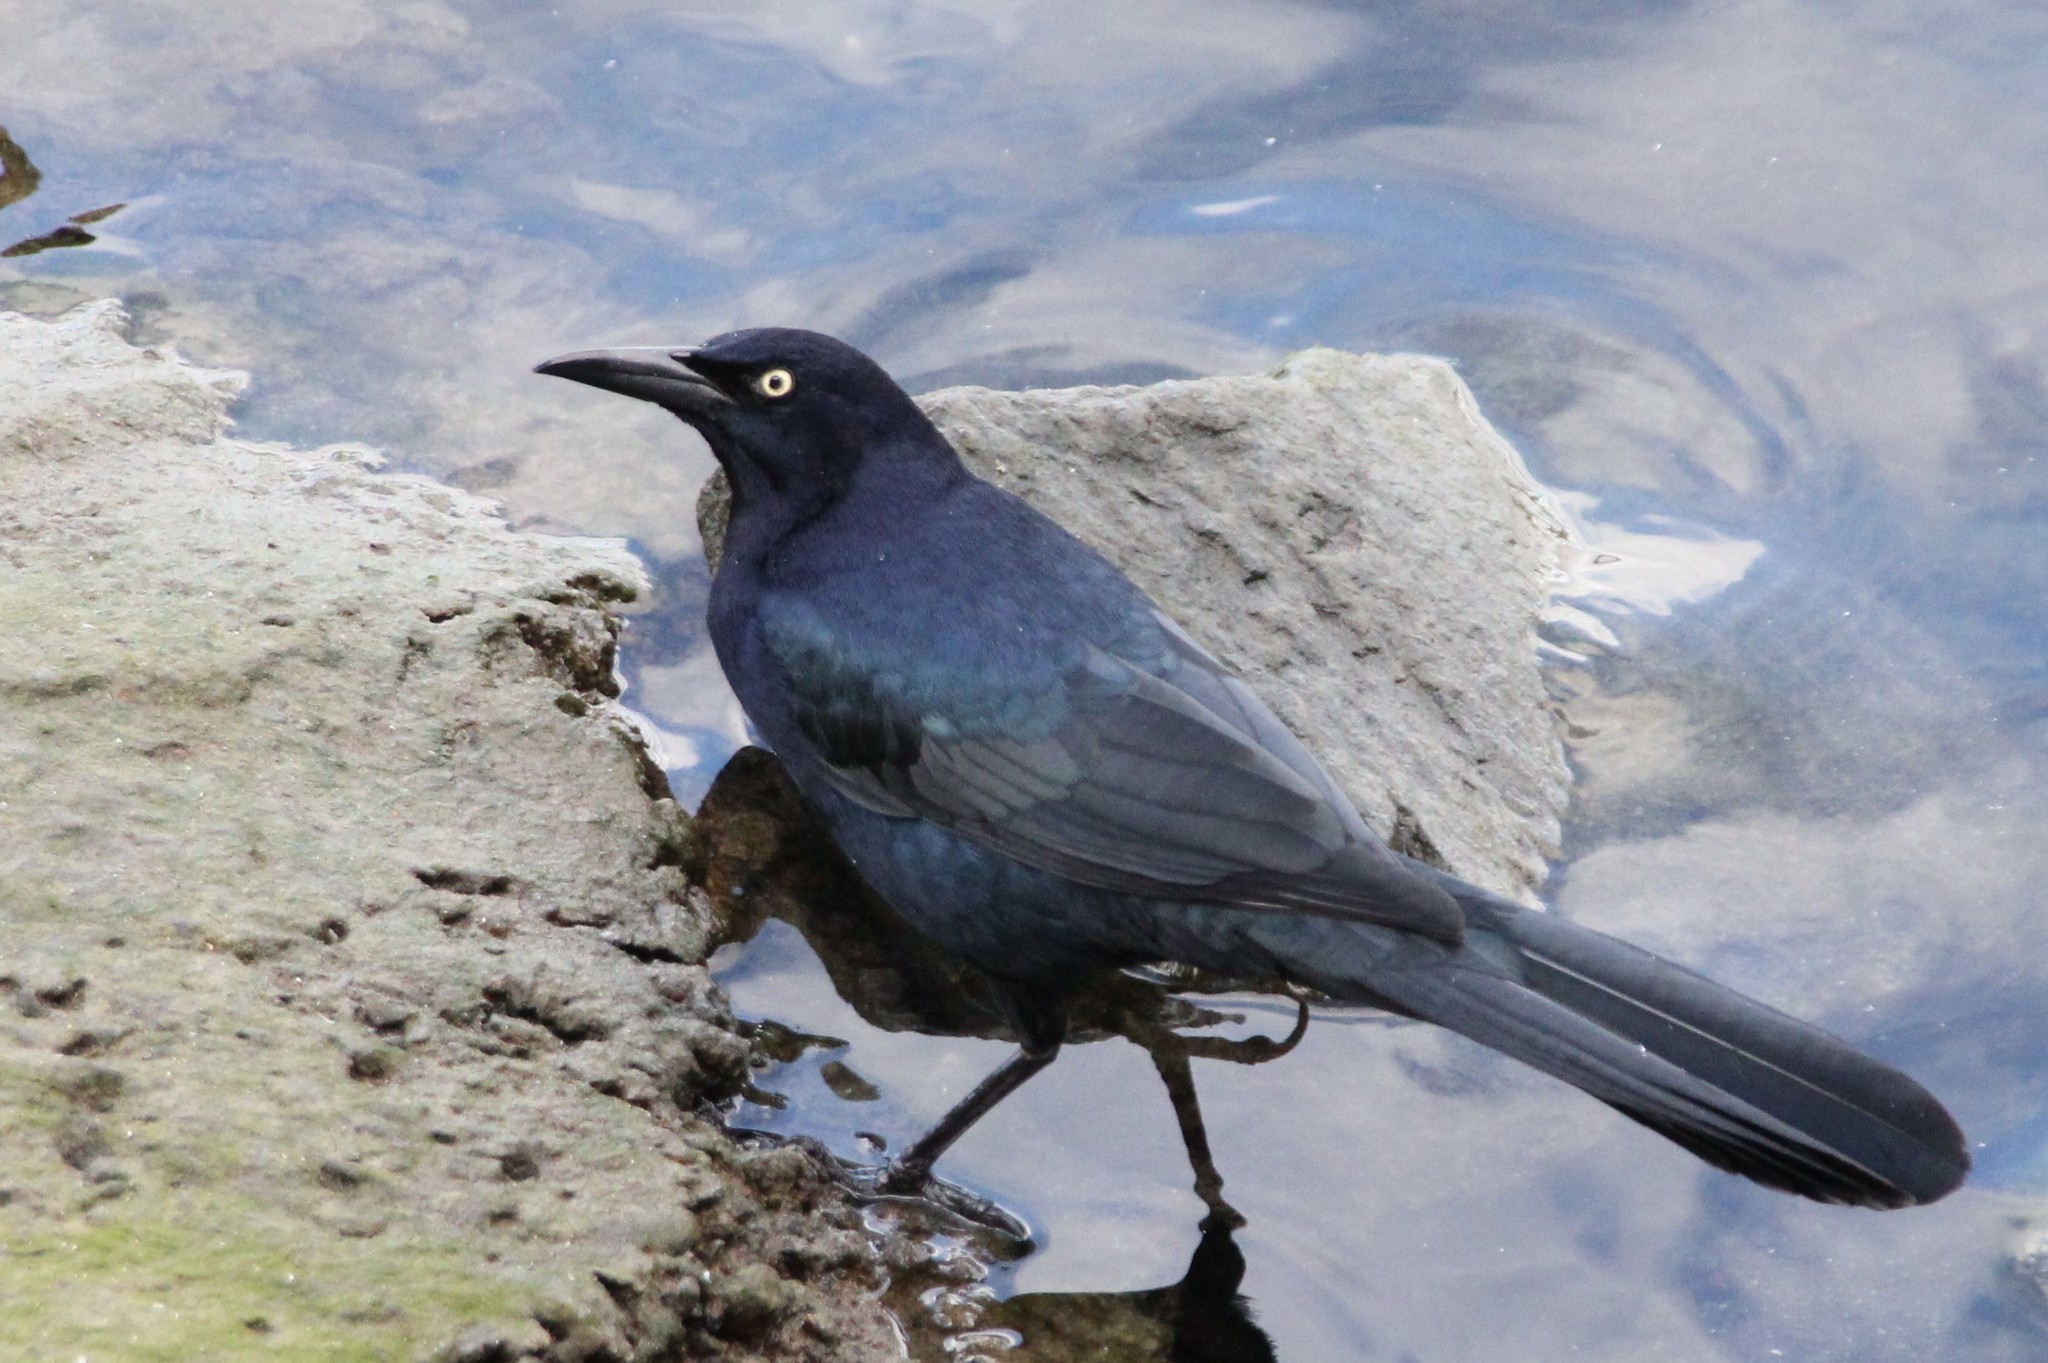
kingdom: Animalia
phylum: Chordata
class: Aves
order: Passeriformes
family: Icteridae
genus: Quiscalus
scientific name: Quiscalus mexicanus
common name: Great-tailed grackle
